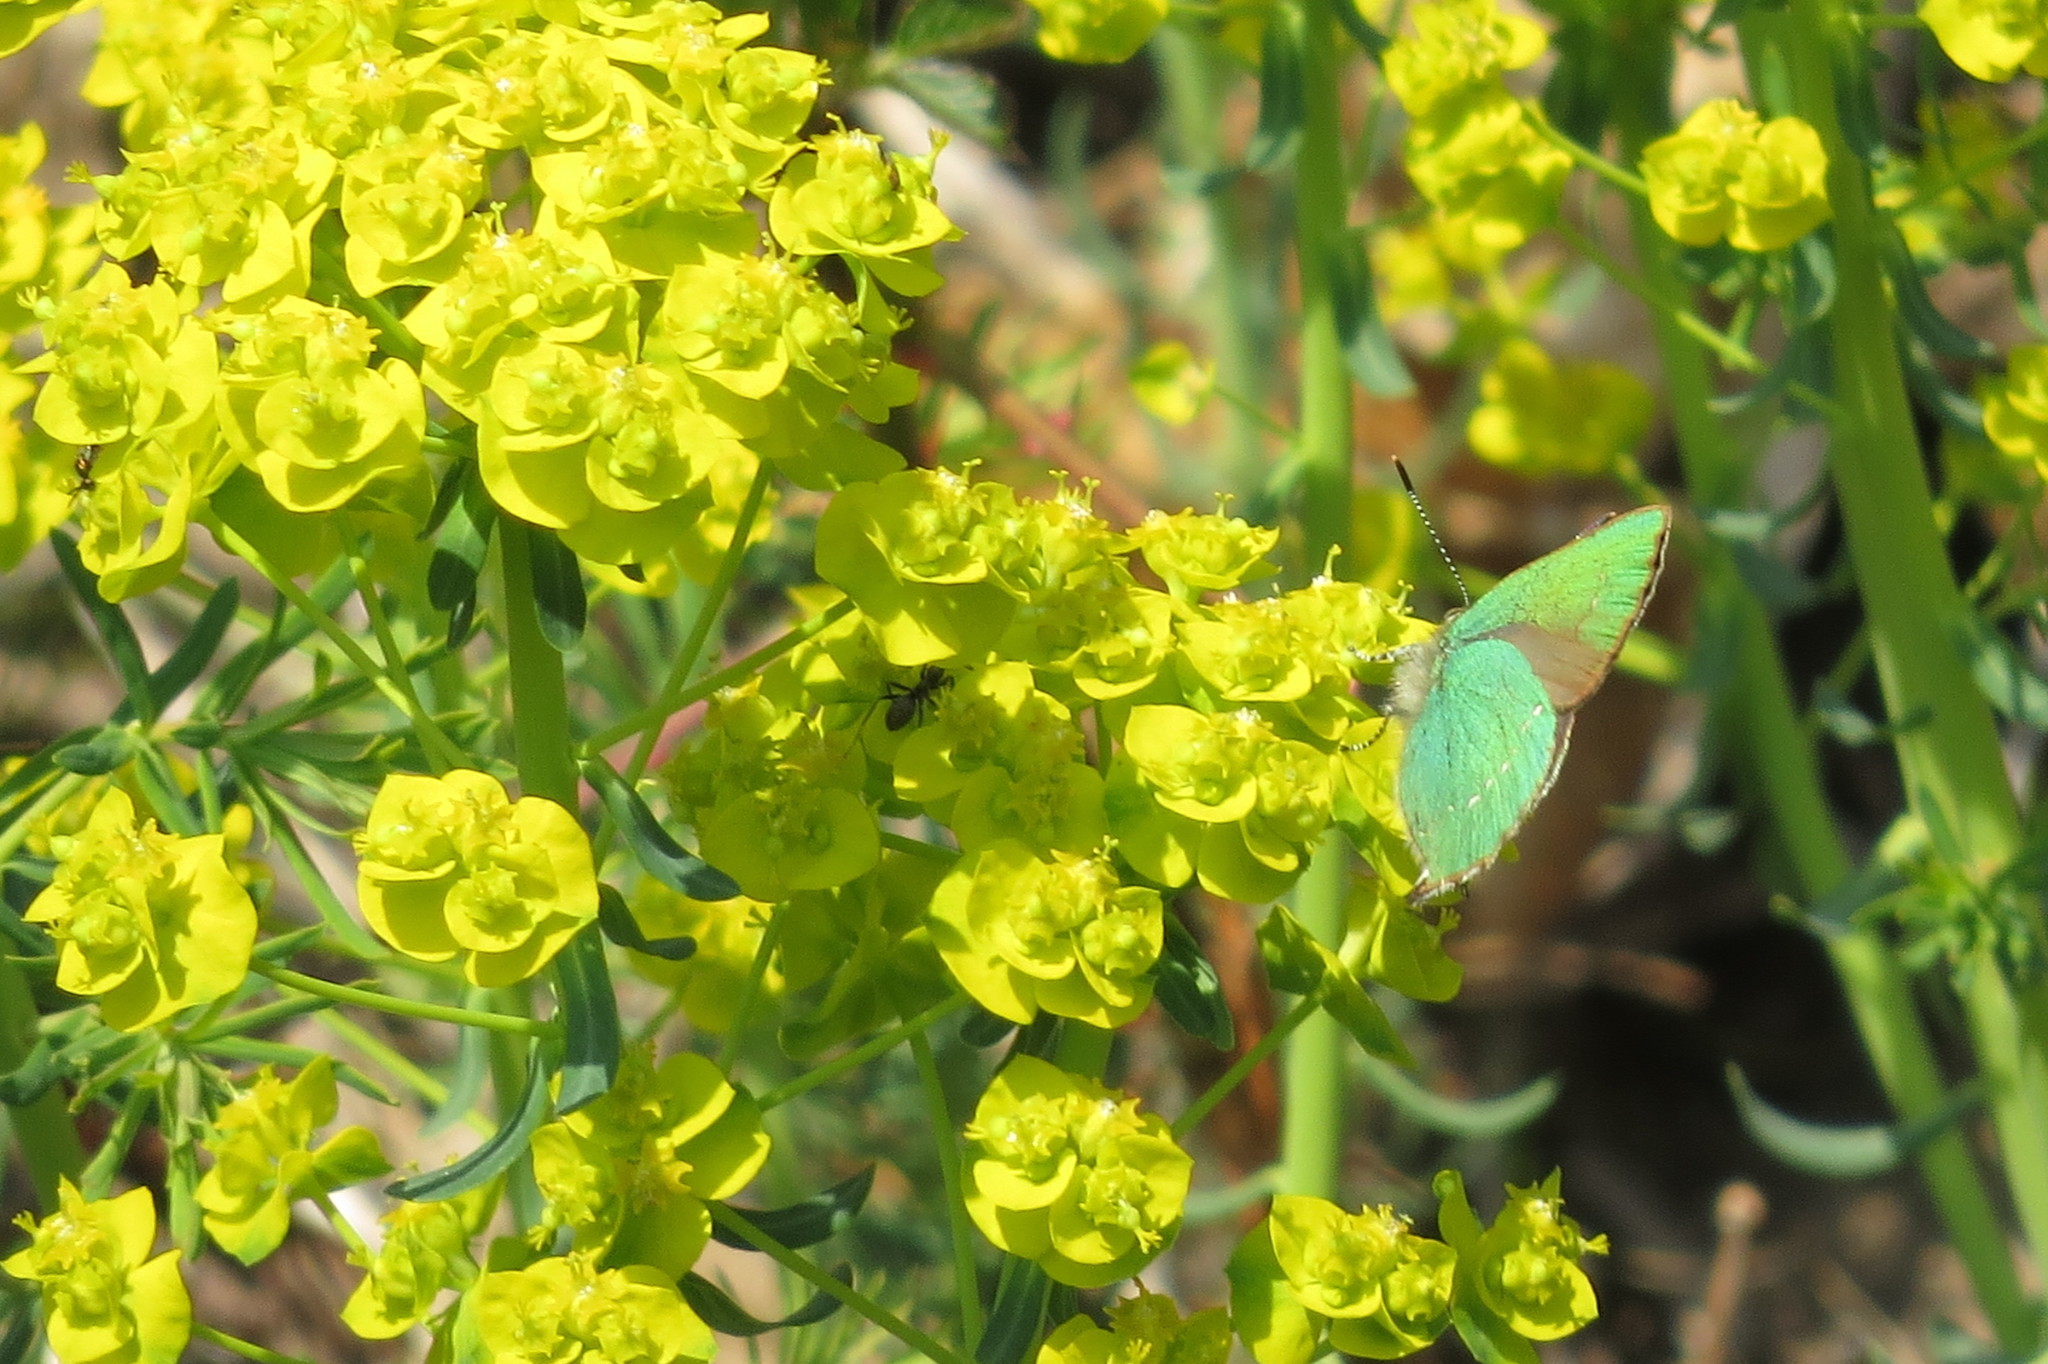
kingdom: Animalia
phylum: Arthropoda
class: Insecta
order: Lepidoptera
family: Lycaenidae
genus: Callophrys
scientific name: Callophrys rubi
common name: Green hairstreak
